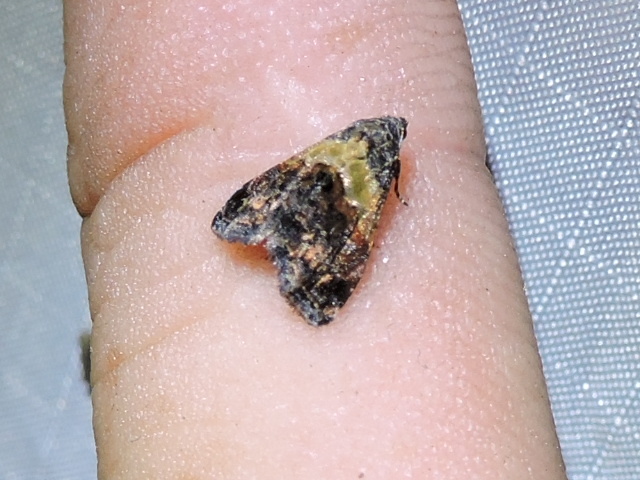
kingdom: Animalia
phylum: Arthropoda
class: Insecta
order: Lepidoptera
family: Noctuidae
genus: Tripudia
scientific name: Tripudia balteata
